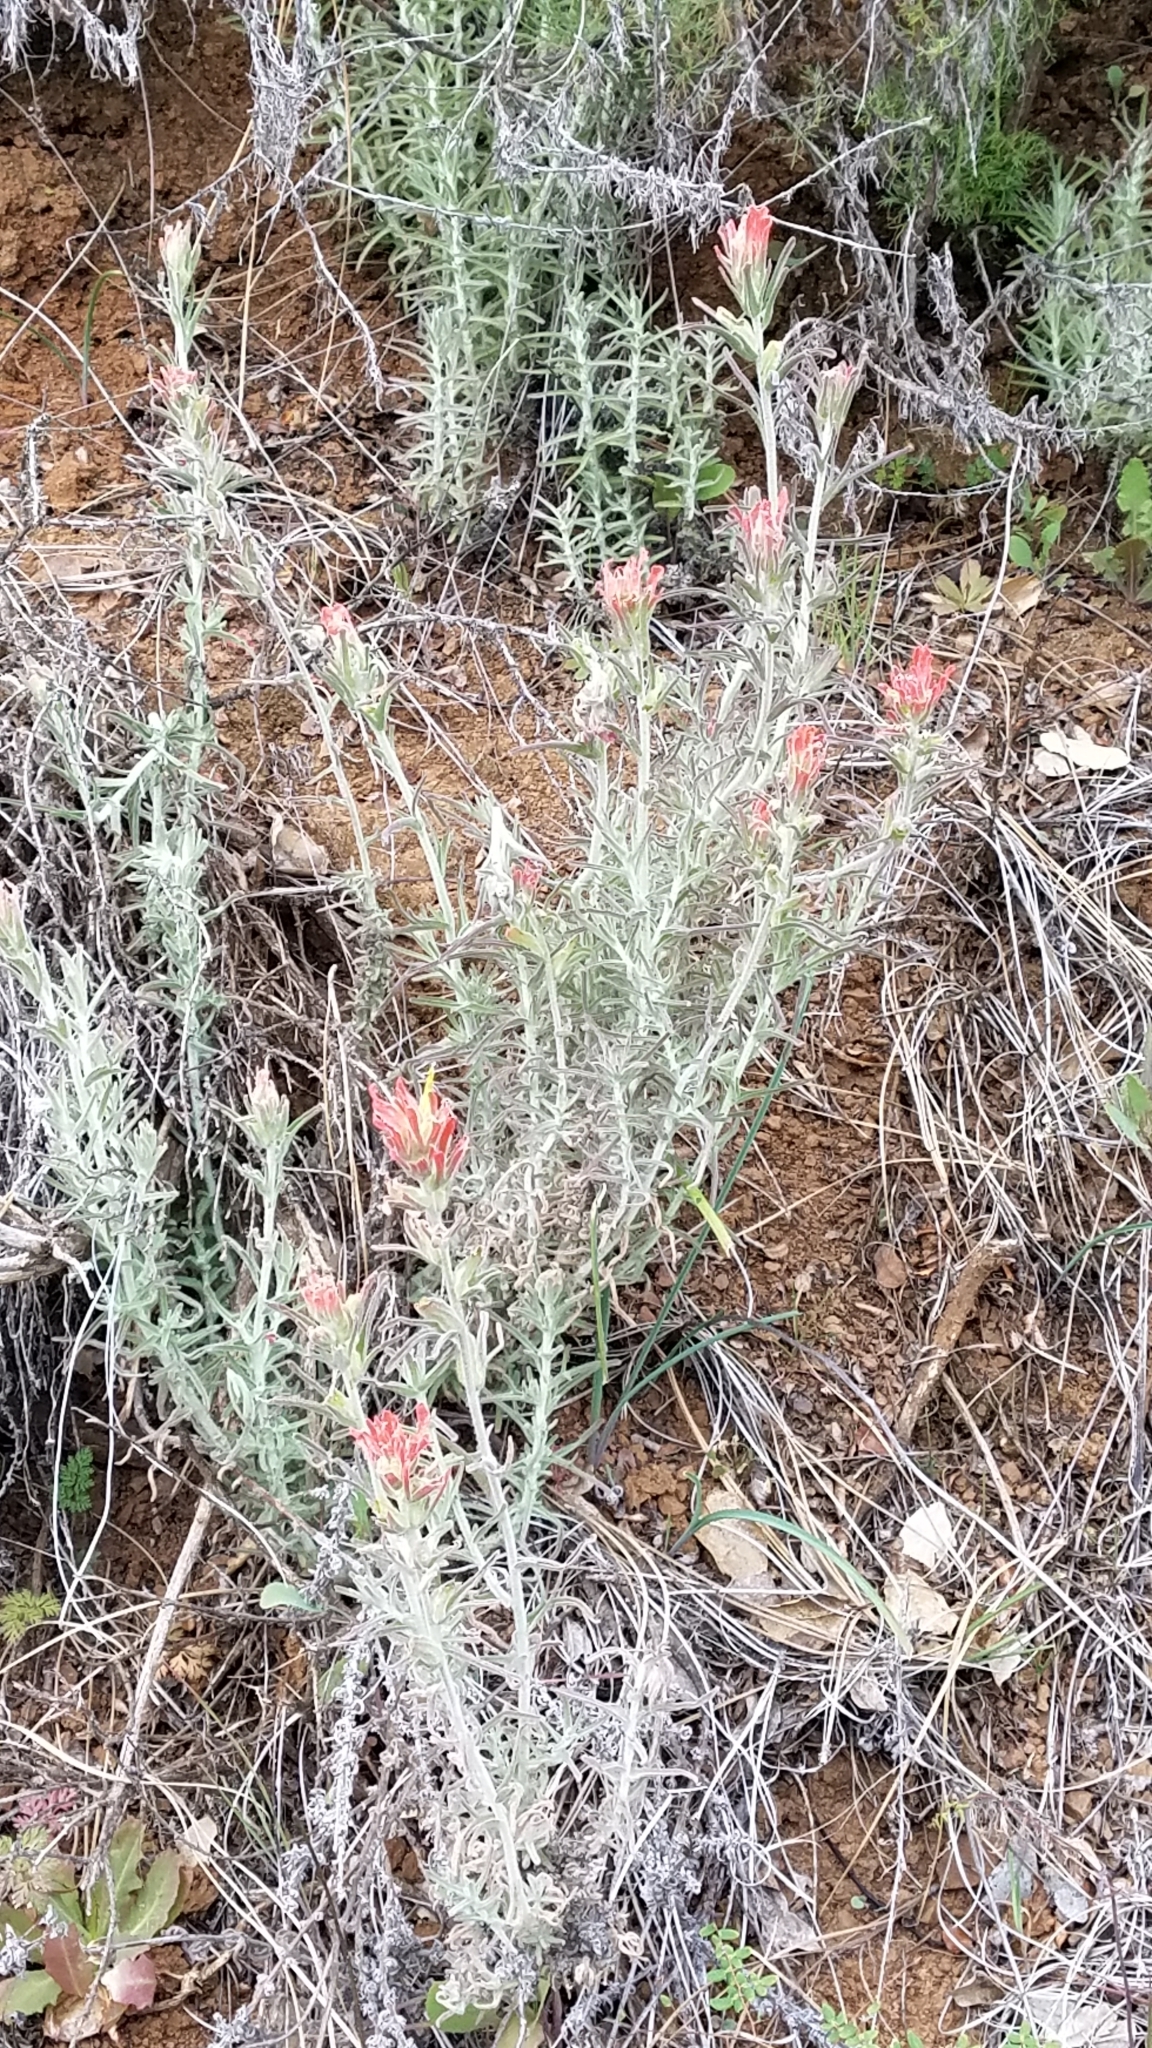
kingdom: Plantae
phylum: Tracheophyta
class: Magnoliopsida
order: Lamiales
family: Orobanchaceae
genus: Castilleja
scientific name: Castilleja foliolosa
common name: Woolly indian paintbrush
